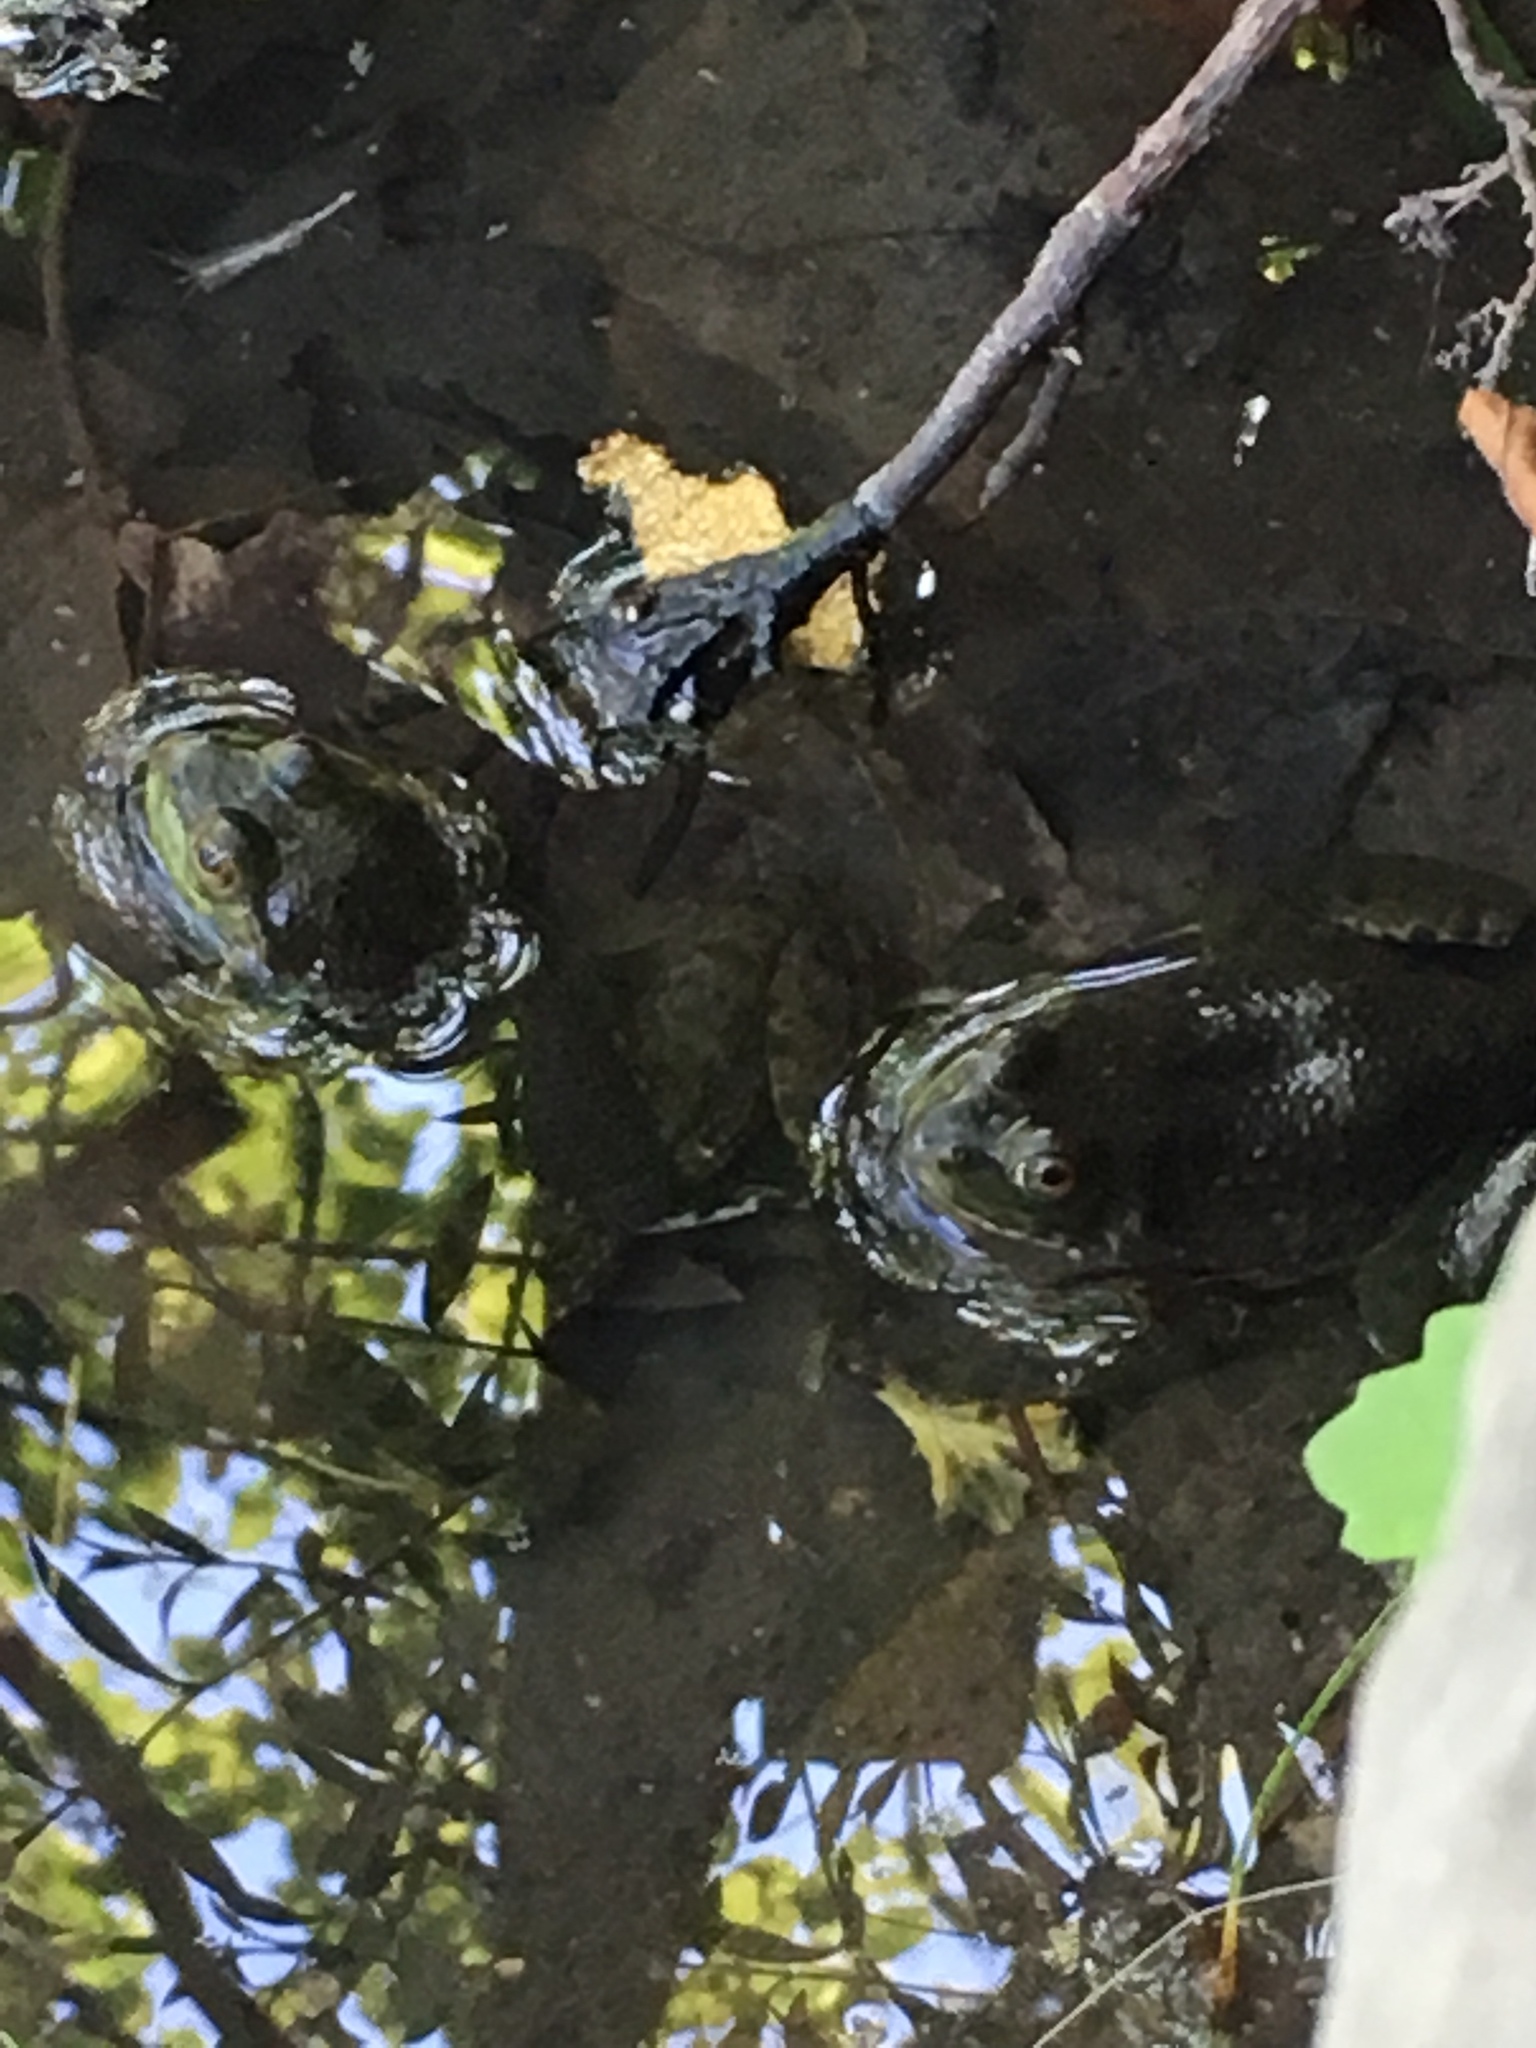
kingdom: Animalia
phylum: Chordata
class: Amphibia
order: Anura
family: Ranidae
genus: Lithobates
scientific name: Lithobates clamitans
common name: Green frog
